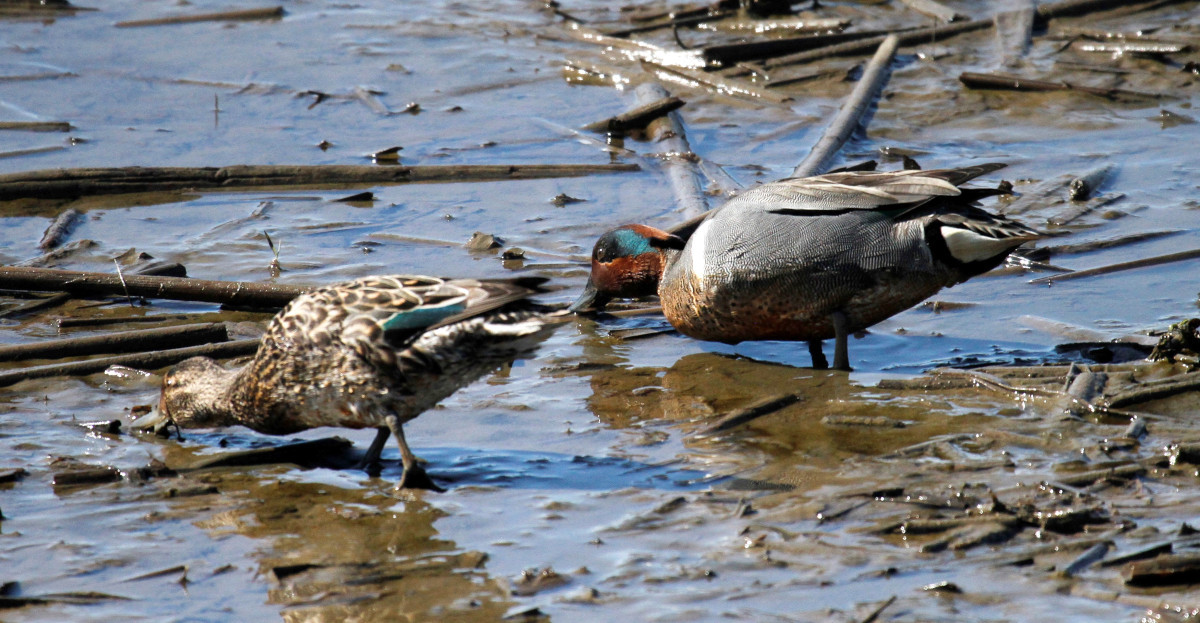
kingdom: Animalia
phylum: Chordata
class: Aves
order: Anseriformes
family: Anatidae
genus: Anas
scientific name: Anas crecca
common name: Eurasian teal
